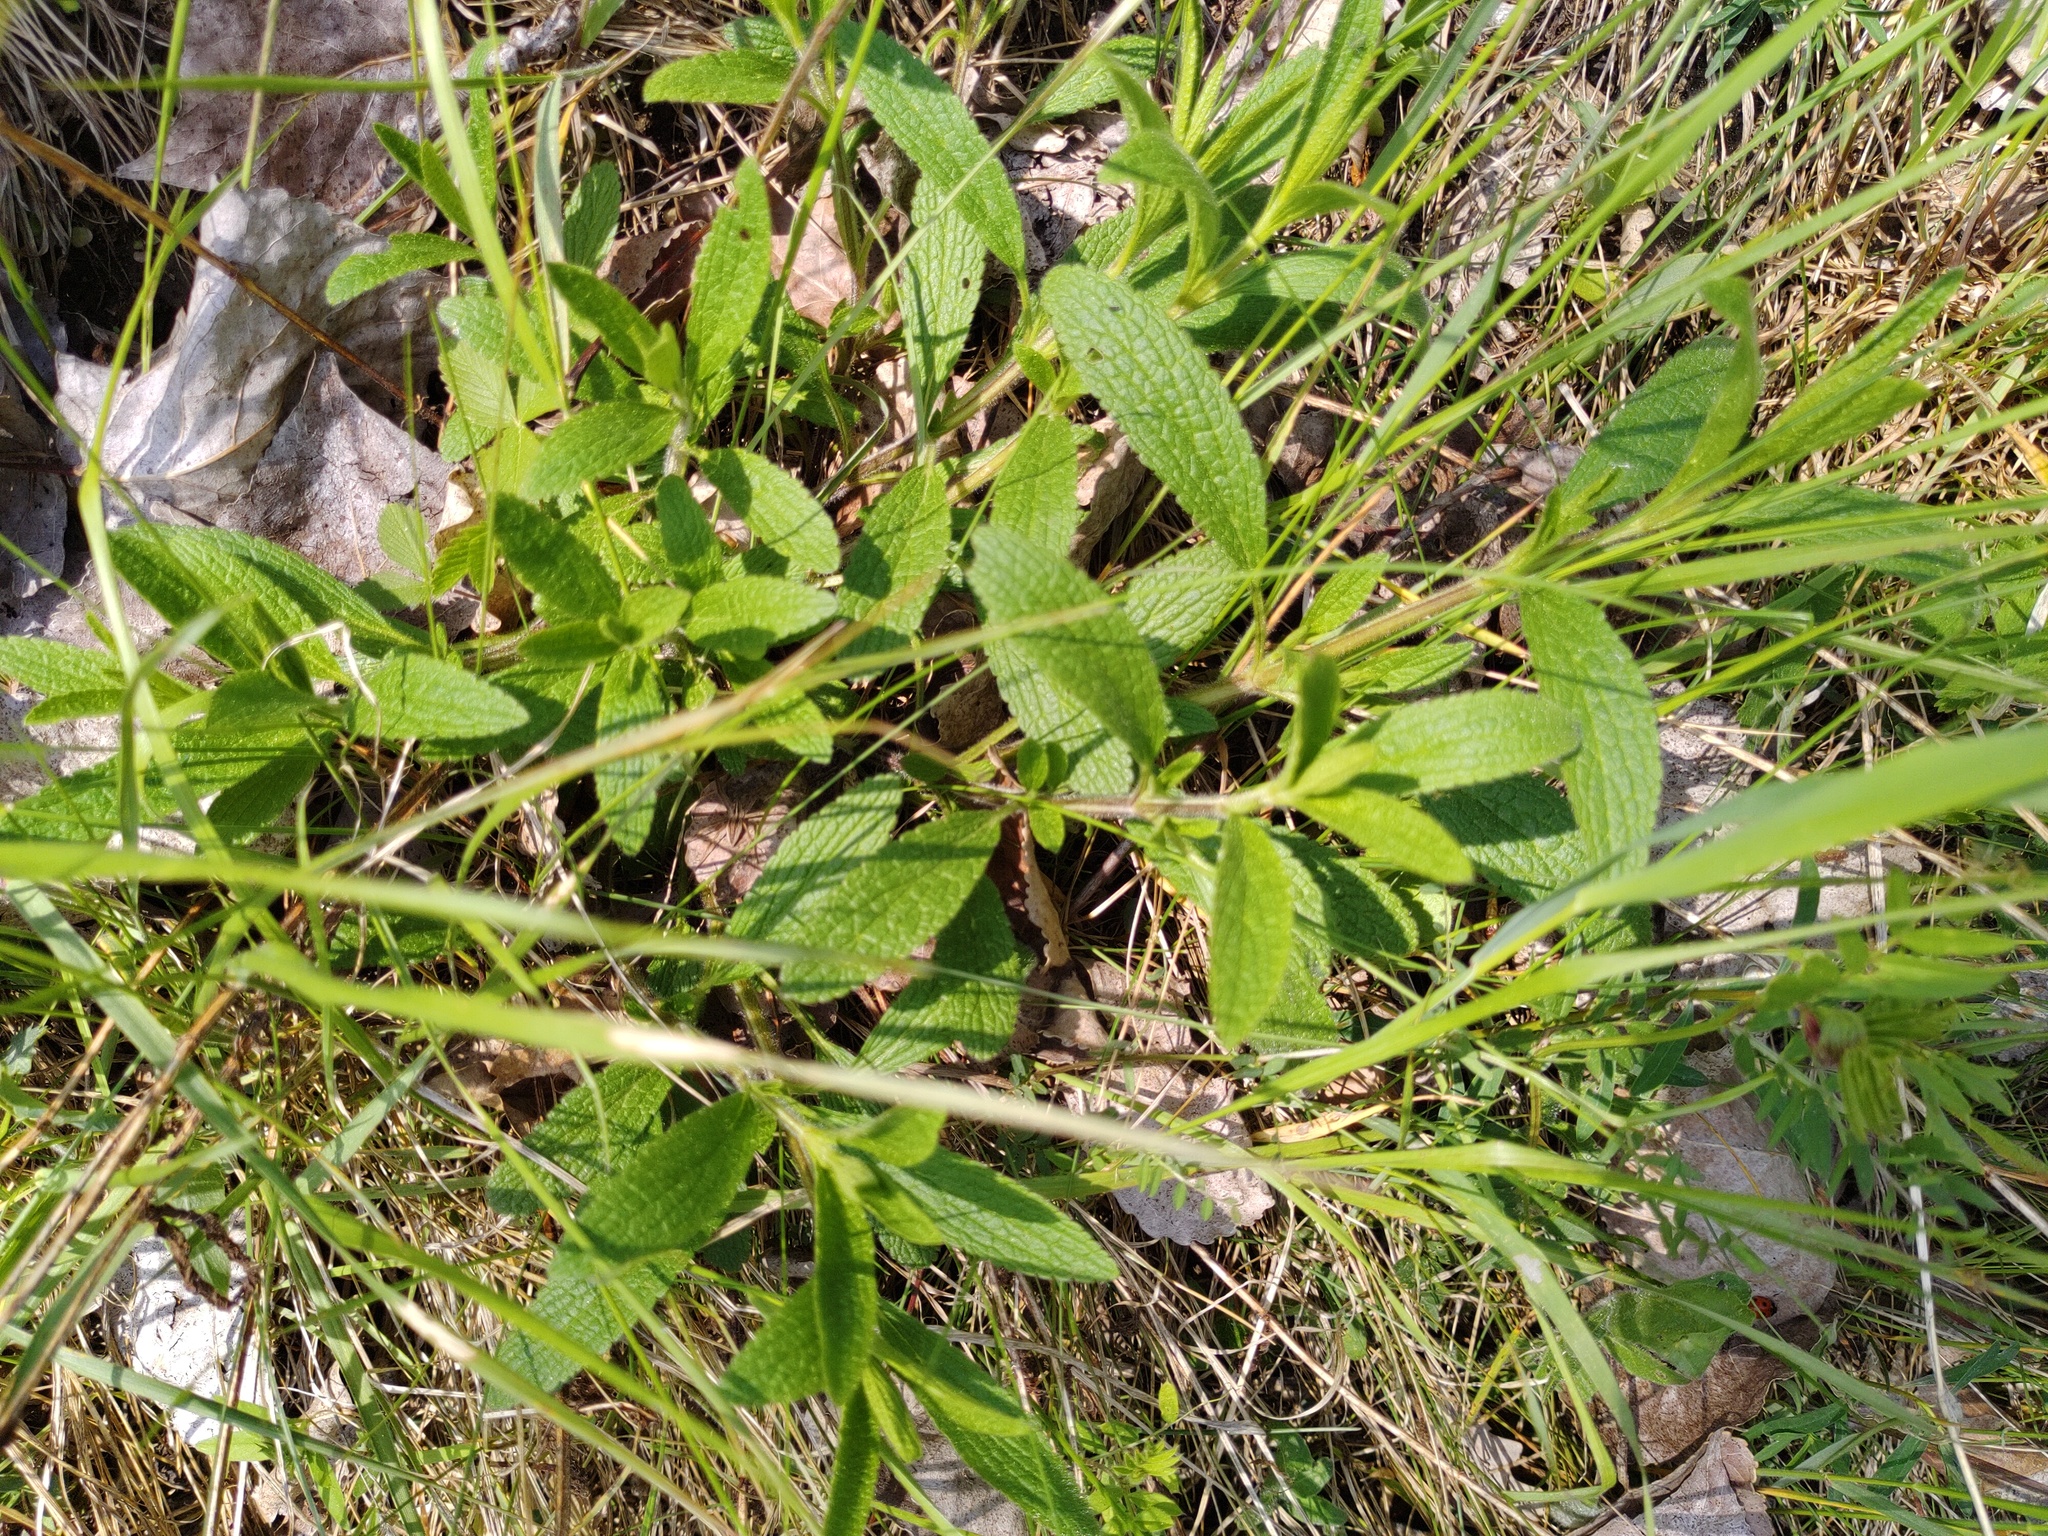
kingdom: Plantae
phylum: Tracheophyta
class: Magnoliopsida
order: Lamiales
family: Lamiaceae
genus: Stachys
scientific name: Stachys recta
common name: Perennial yellow-woundwort
